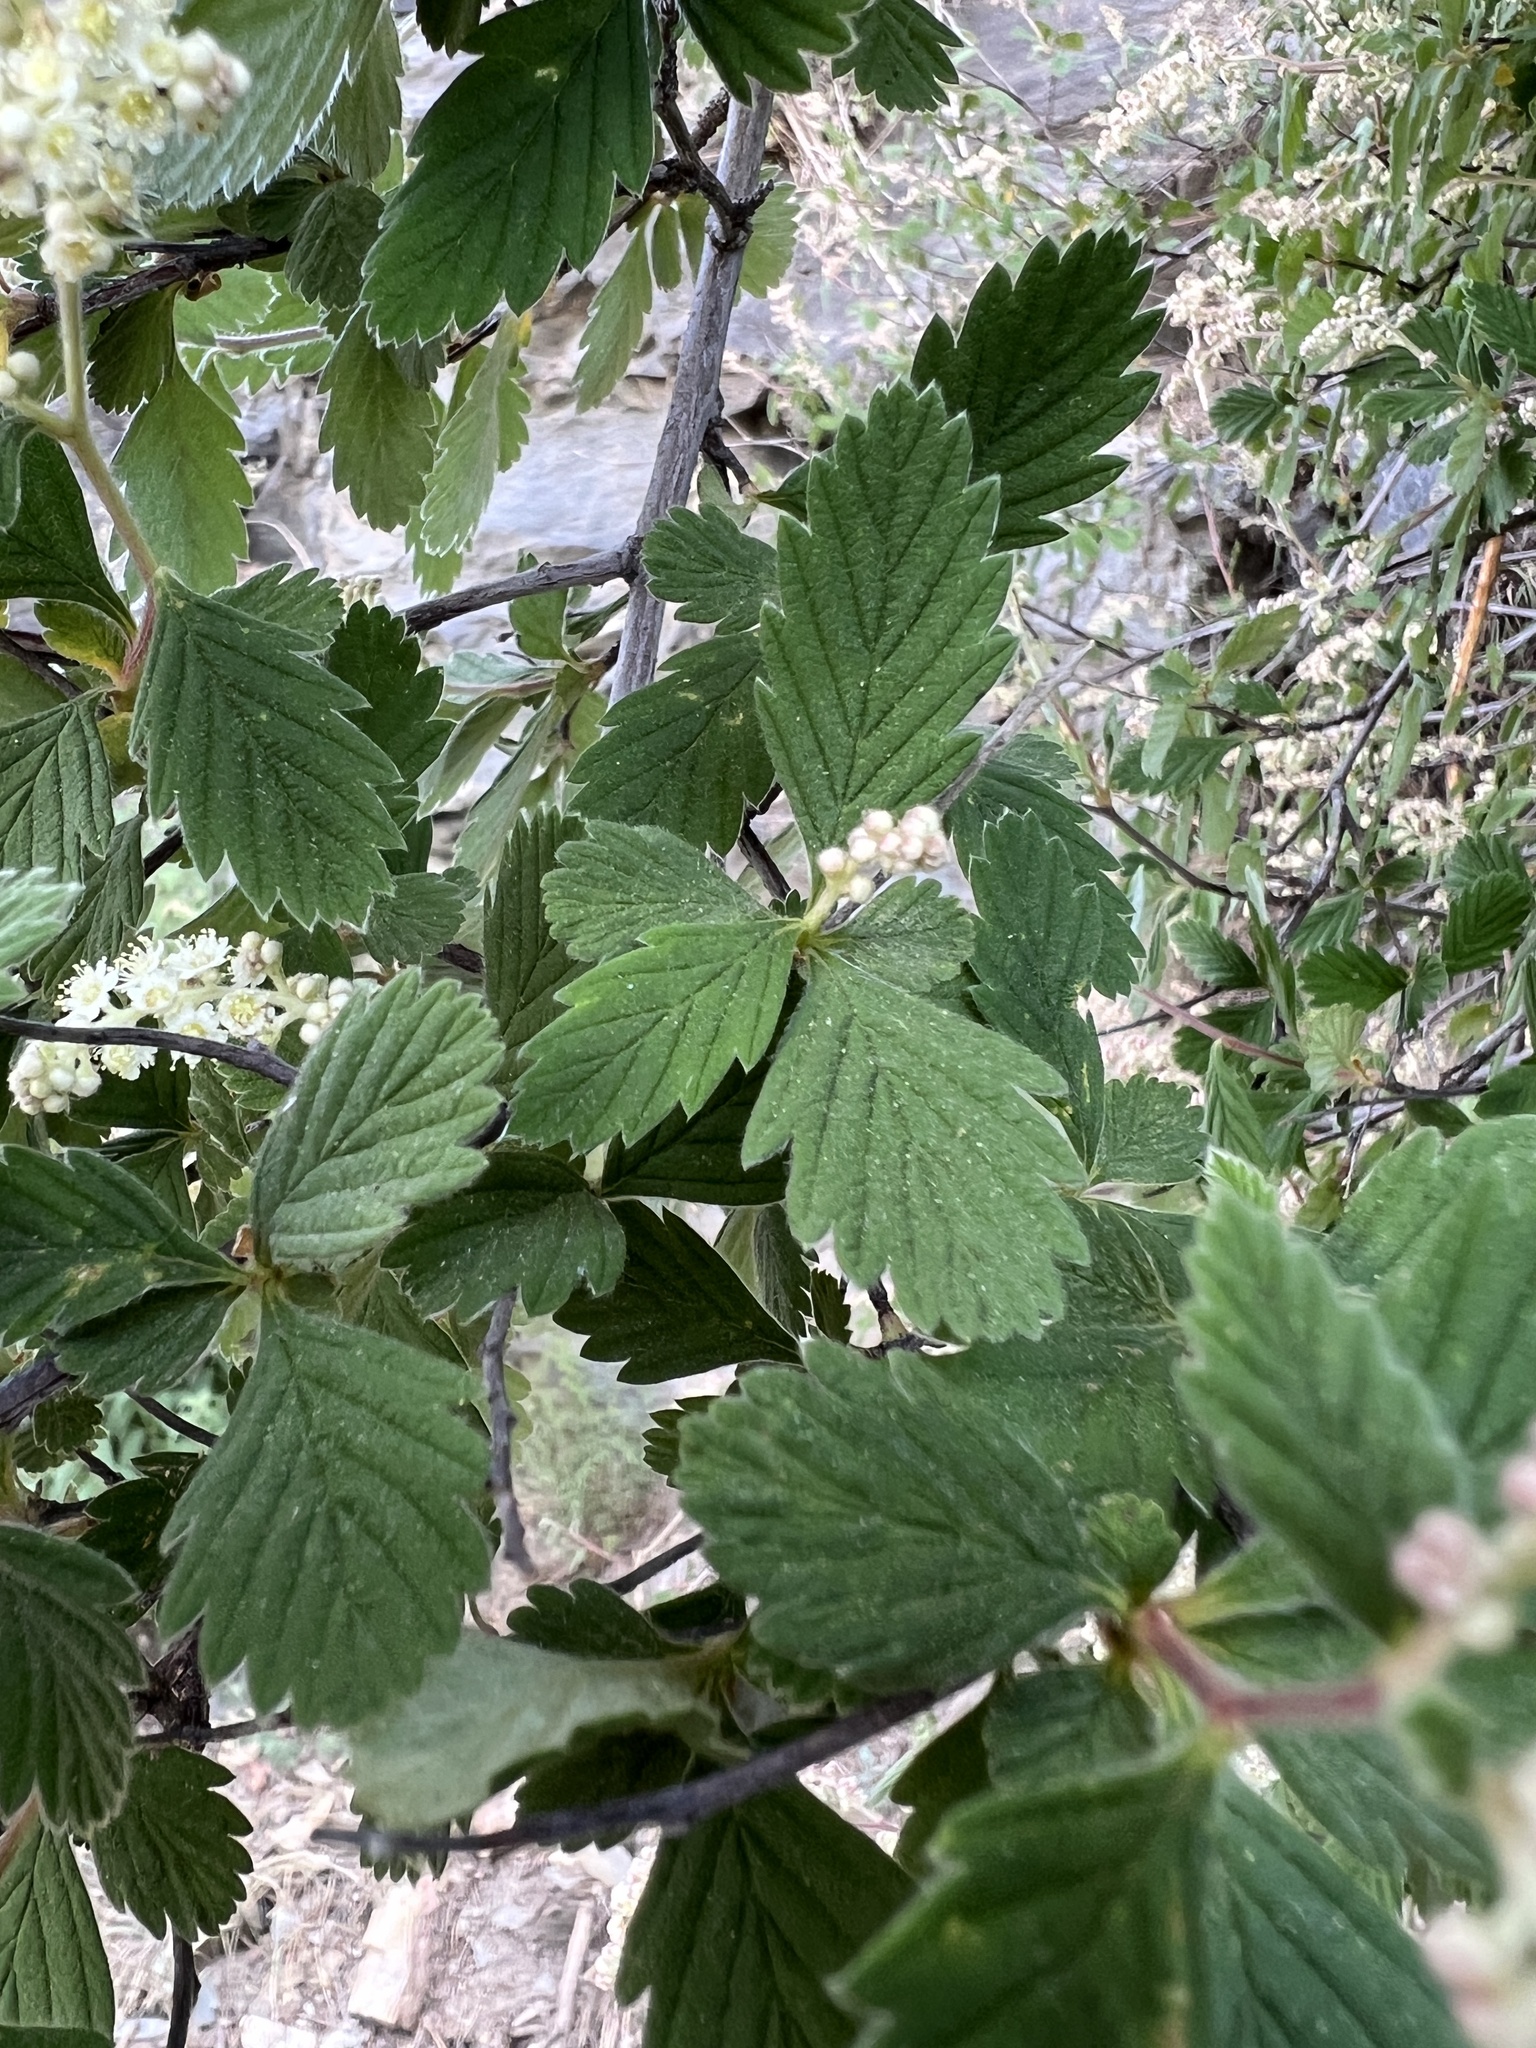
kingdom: Plantae
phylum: Tracheophyta
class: Magnoliopsida
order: Rosales
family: Rosaceae
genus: Holodiscus
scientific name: Holodiscus discolor
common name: Oceanspray
